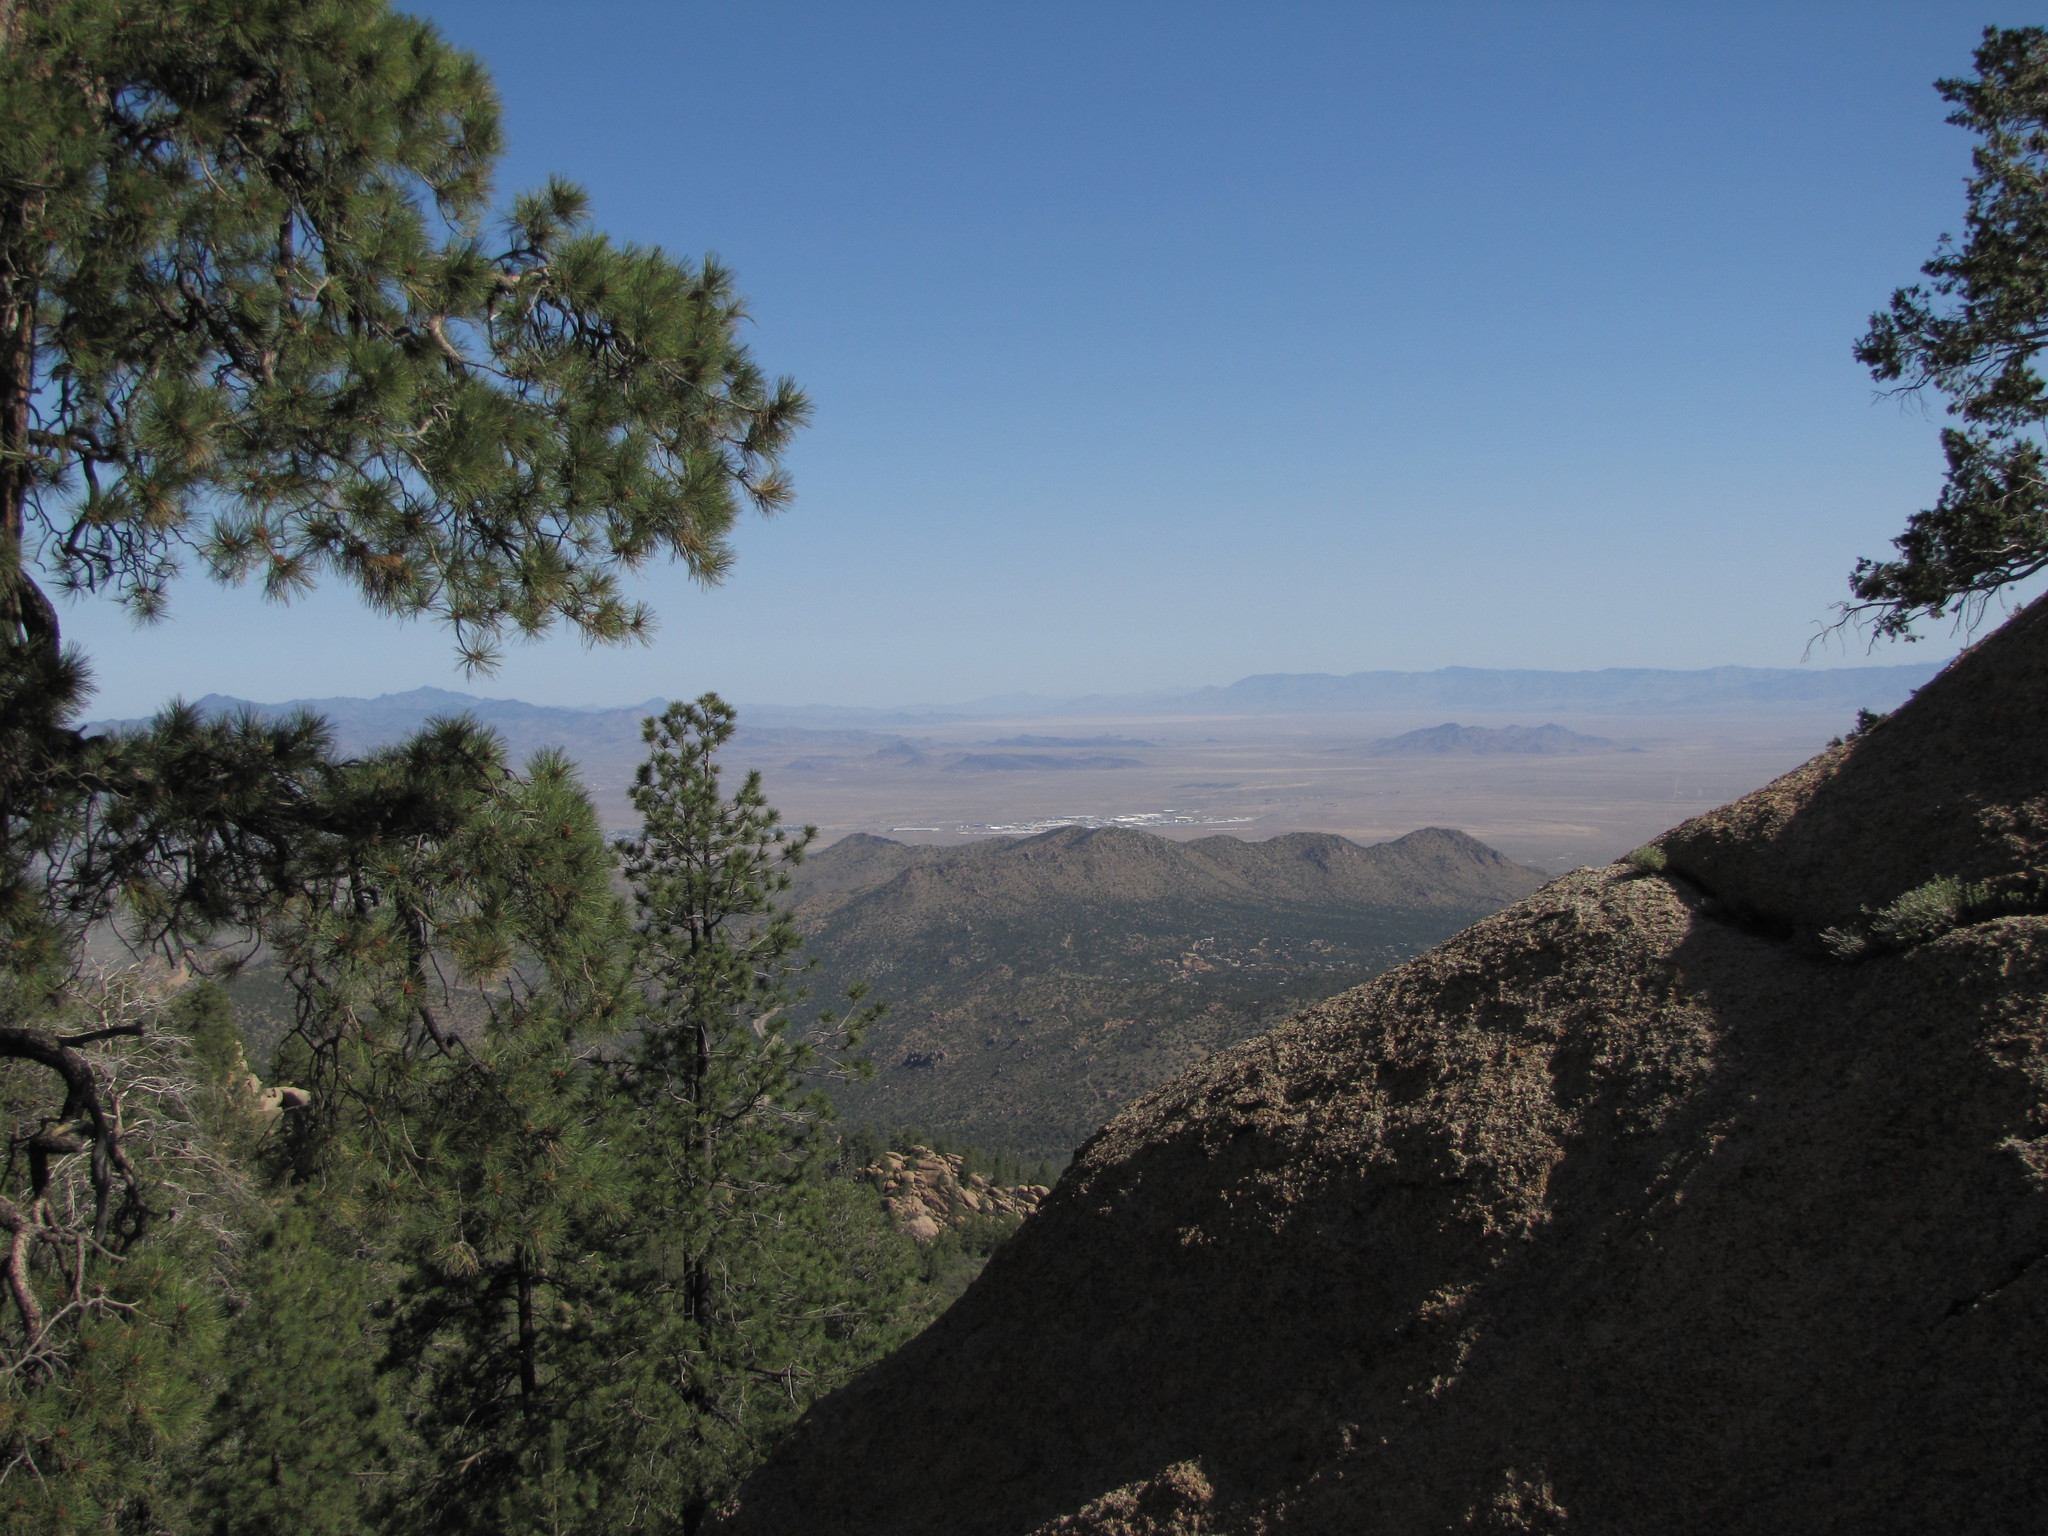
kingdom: Plantae
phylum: Tracheophyta
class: Pinopsida
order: Pinales
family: Pinaceae
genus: Pinus
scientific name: Pinus ponderosa
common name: Western yellow-pine
